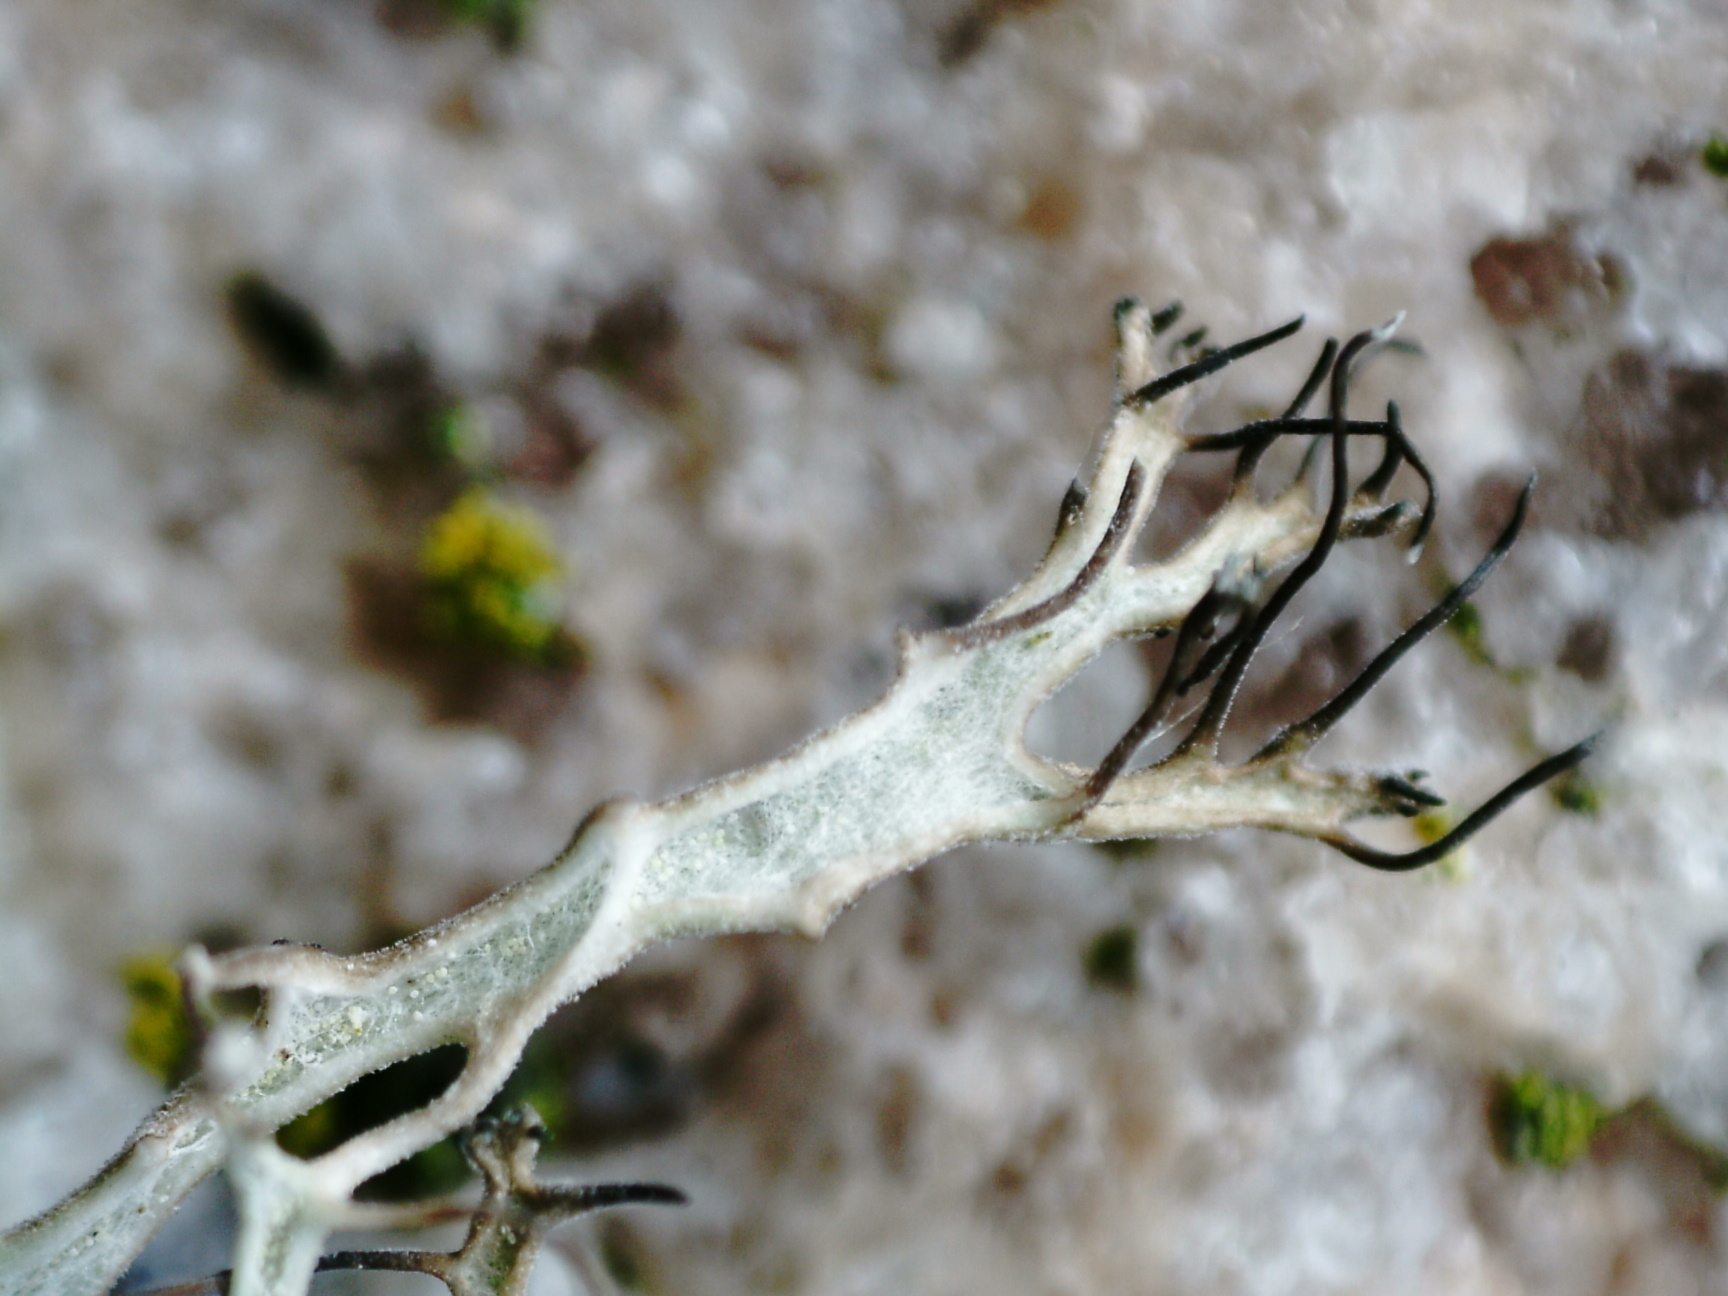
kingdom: Fungi
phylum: Ascomycota
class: Lecanoromycetes
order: Caliciales
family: Physciaceae
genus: Anaptychia
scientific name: Anaptychia ciliaris
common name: Great ciliated lichen
